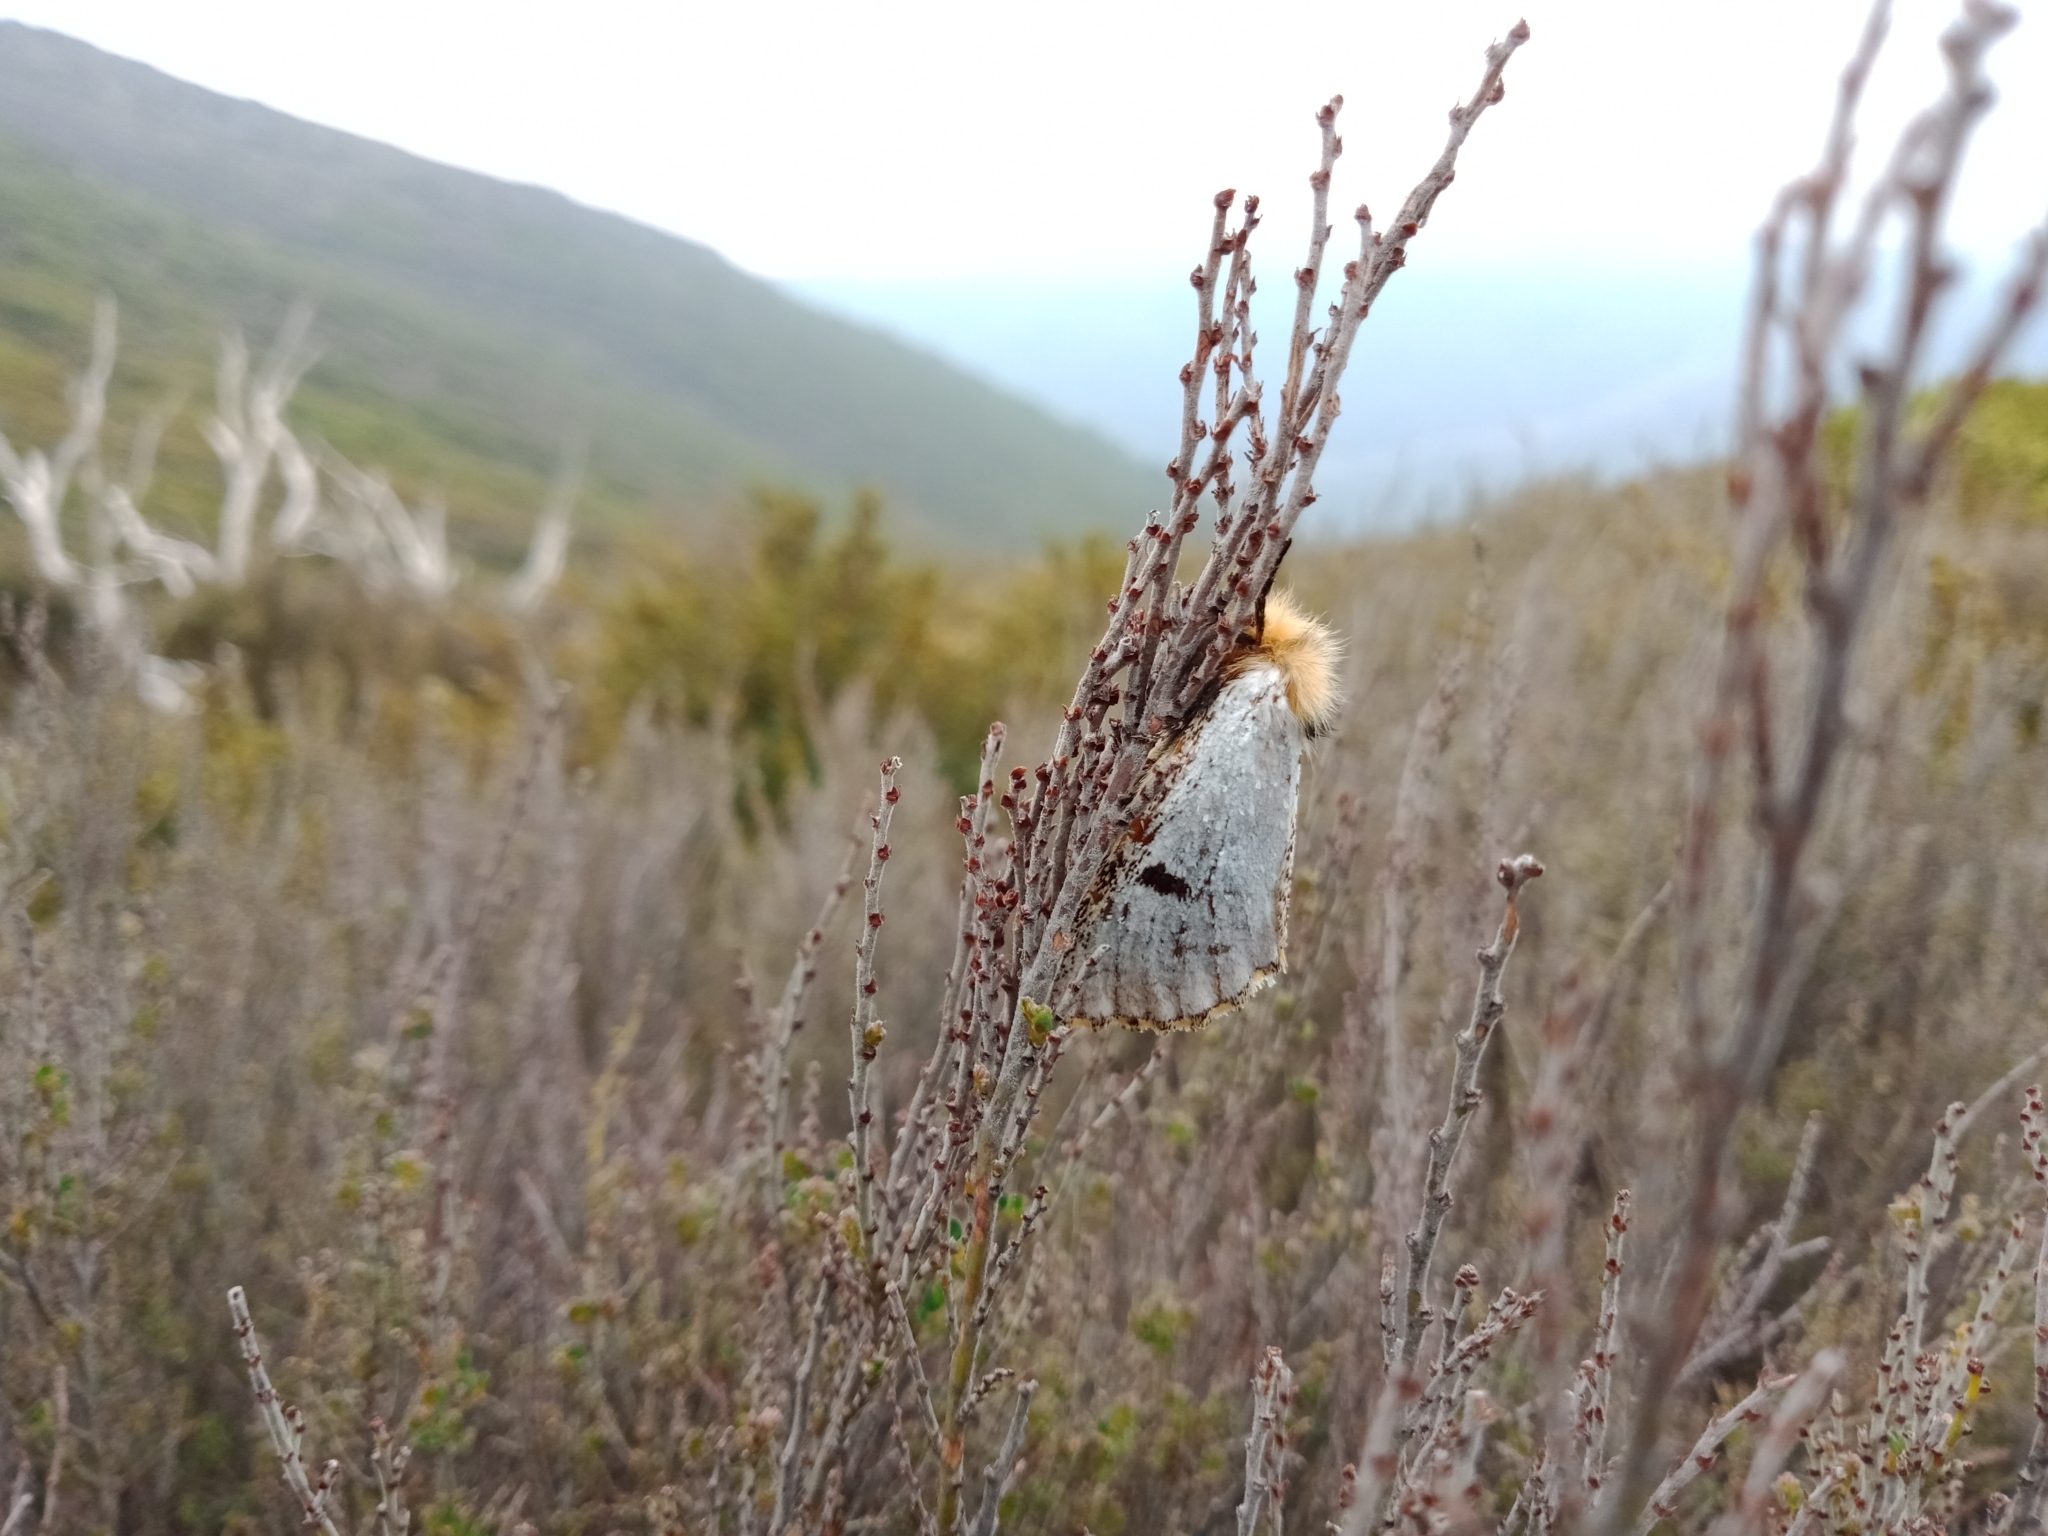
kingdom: Animalia
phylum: Arthropoda
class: Insecta
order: Lepidoptera
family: Notodontidae
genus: Epicoma
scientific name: Epicoma melanospila
